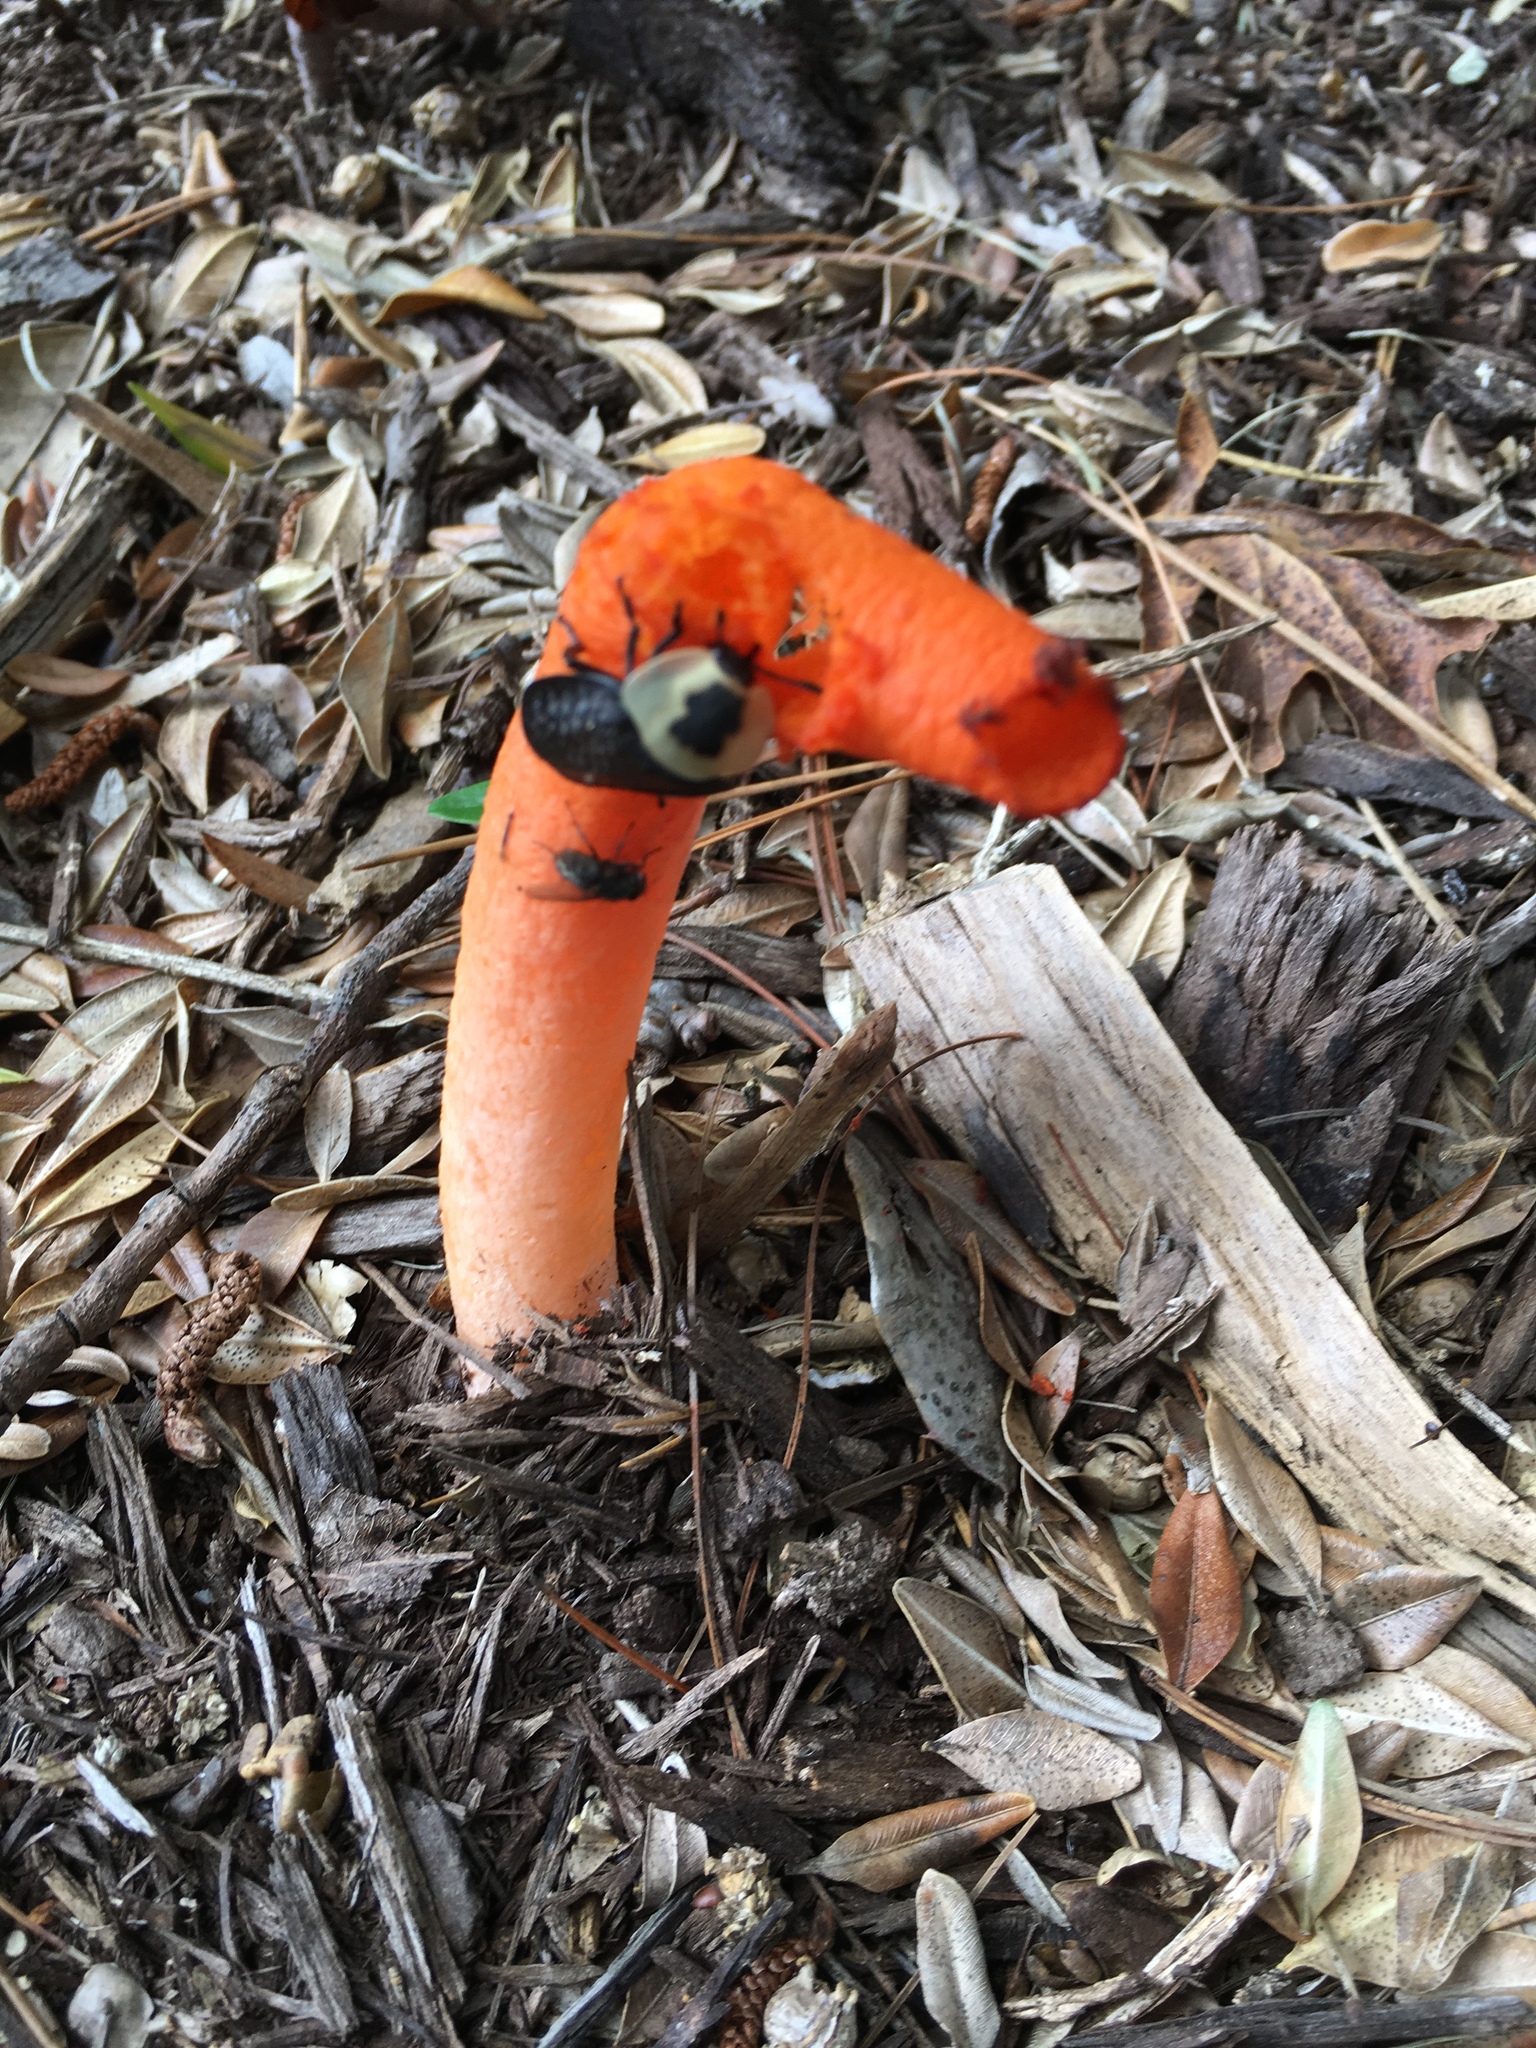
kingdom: Animalia
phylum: Arthropoda
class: Insecta
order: Coleoptera
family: Staphylinidae
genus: Necrophila
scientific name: Necrophila americana
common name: American carrion beetle
